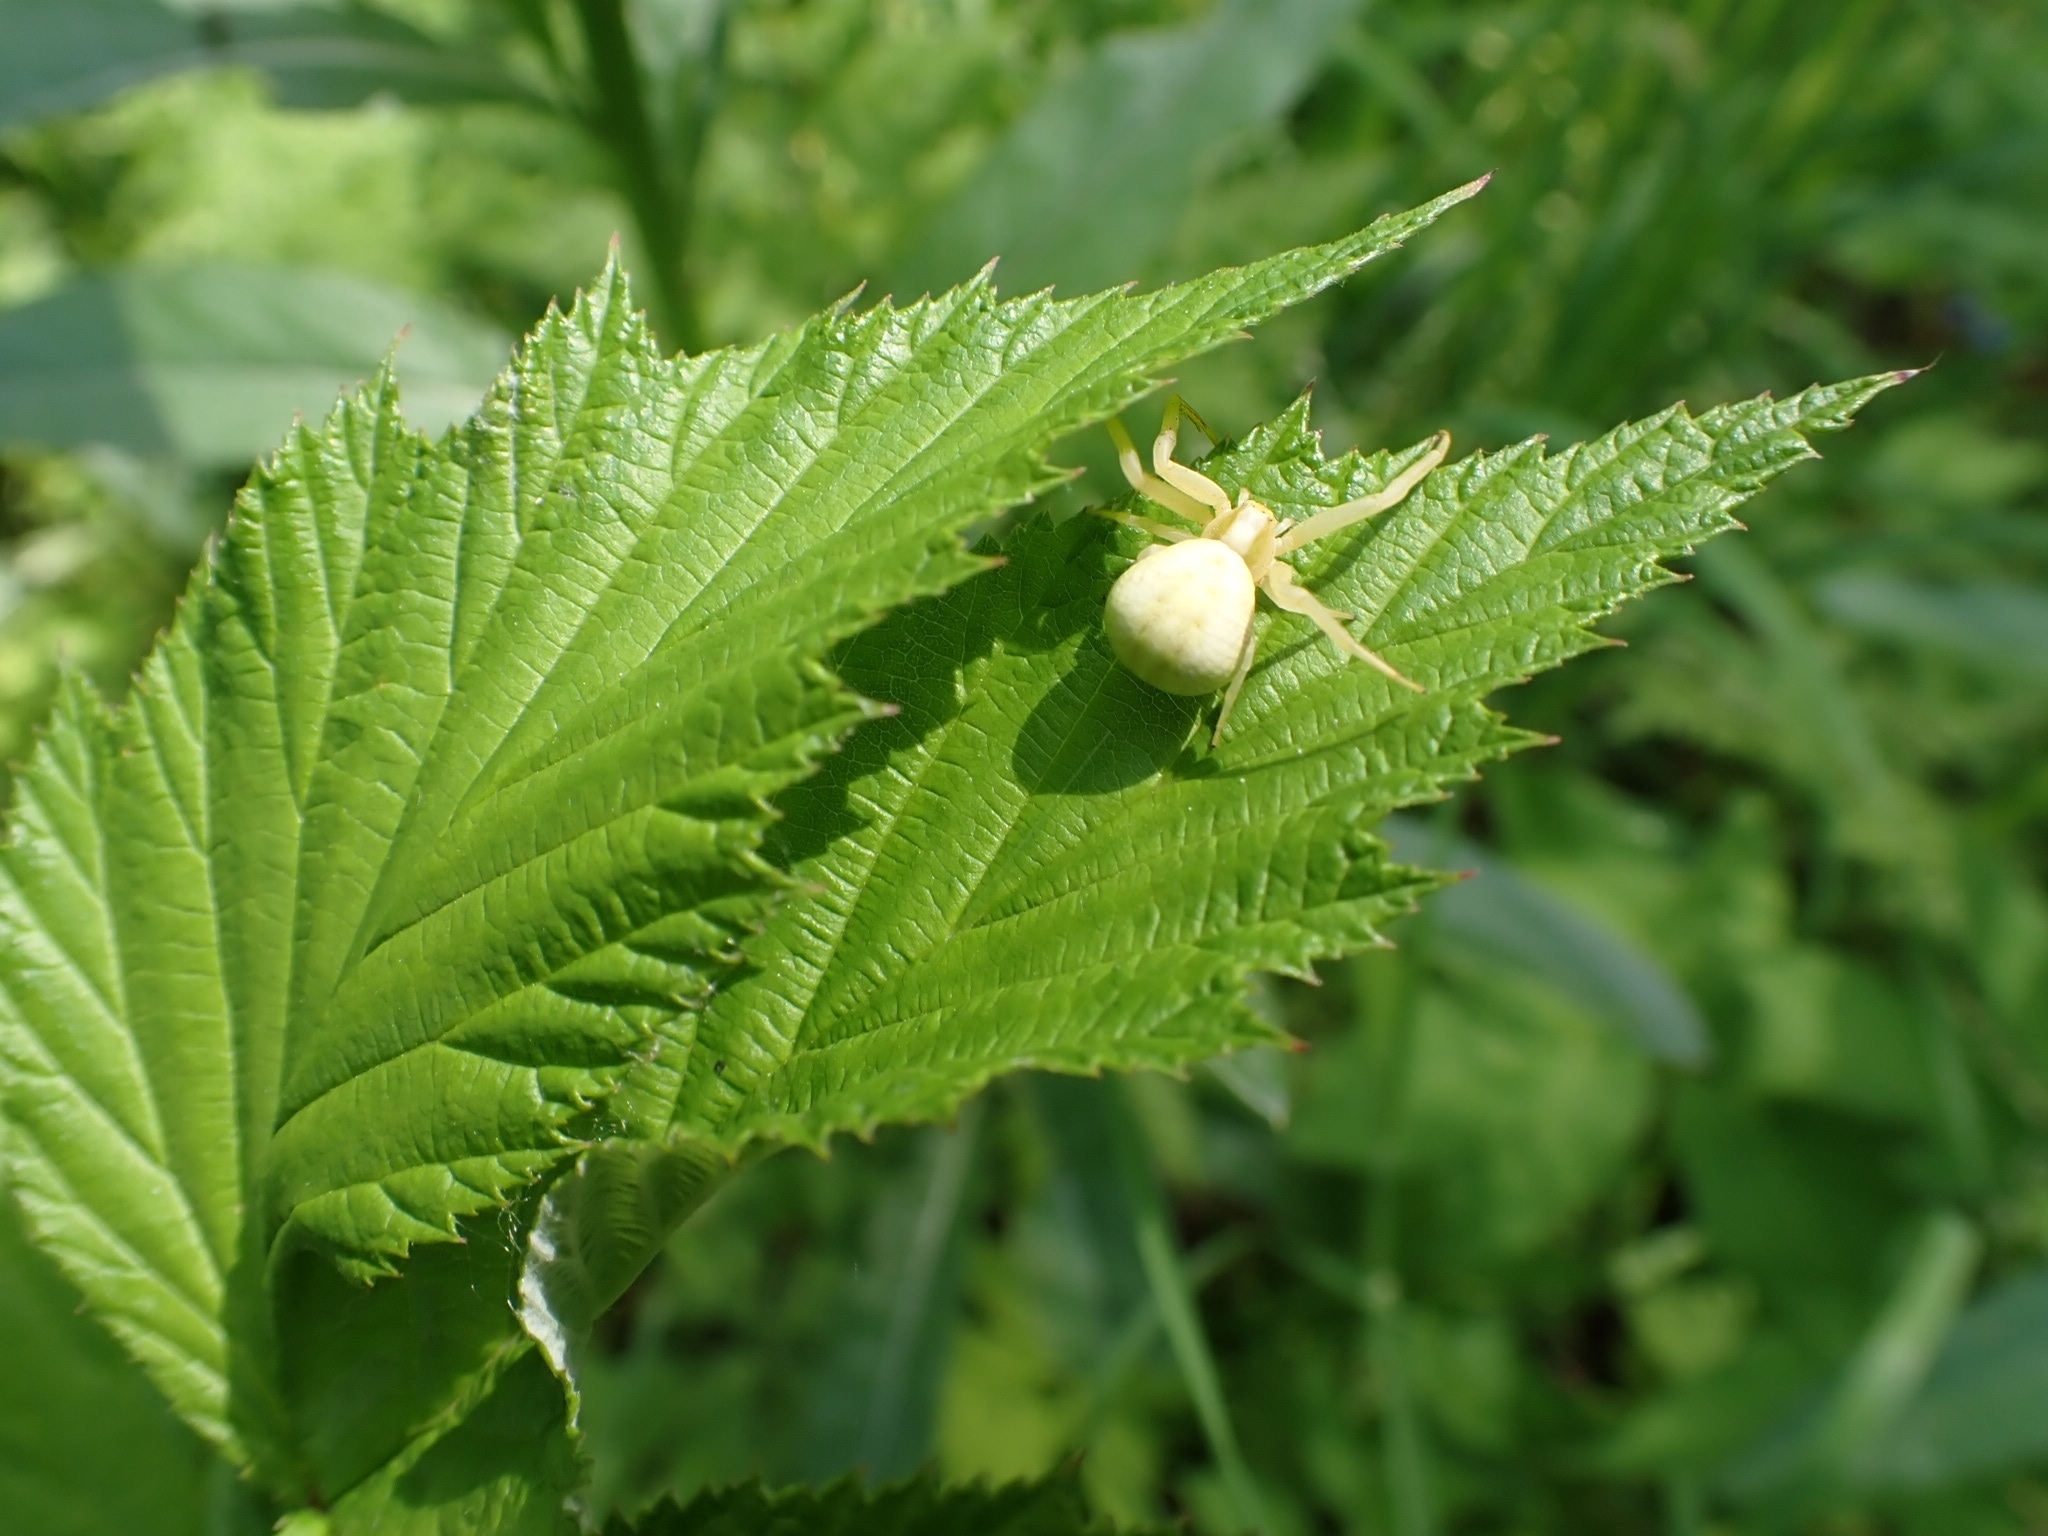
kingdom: Animalia
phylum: Arthropoda
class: Arachnida
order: Araneae
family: Thomisidae
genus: Misumena
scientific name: Misumena vatia
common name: Goldenrod crab spider
